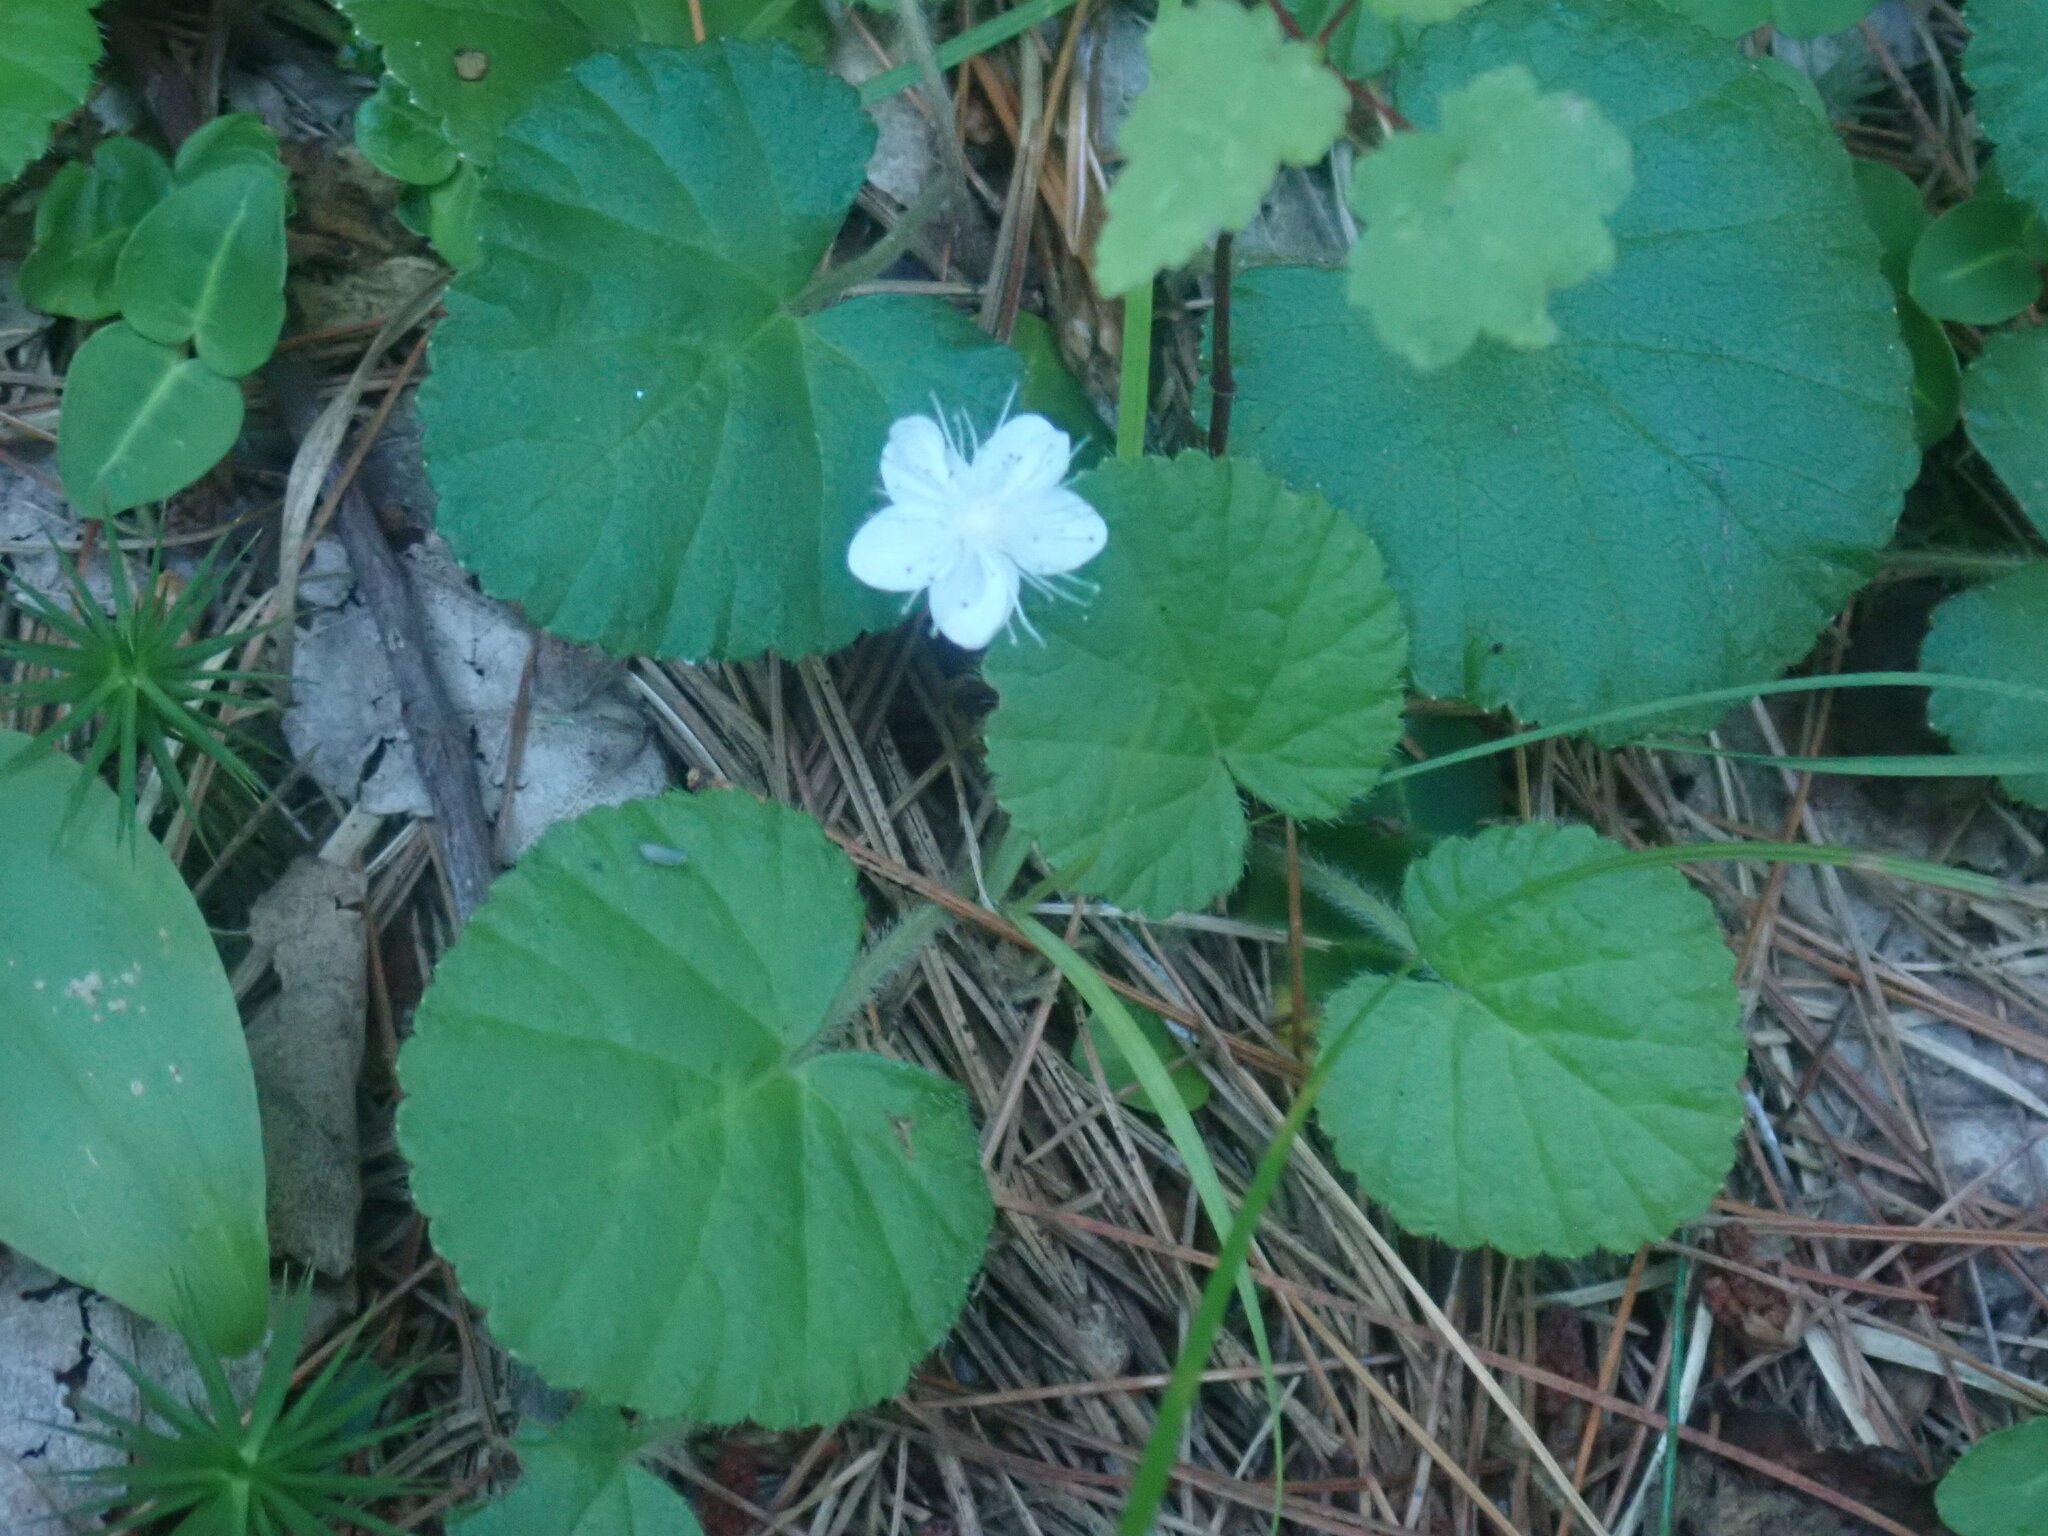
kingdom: Plantae
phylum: Tracheophyta
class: Magnoliopsida
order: Rosales
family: Rosaceae
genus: Dalibarda
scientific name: Dalibarda repens
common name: Dewdrop
